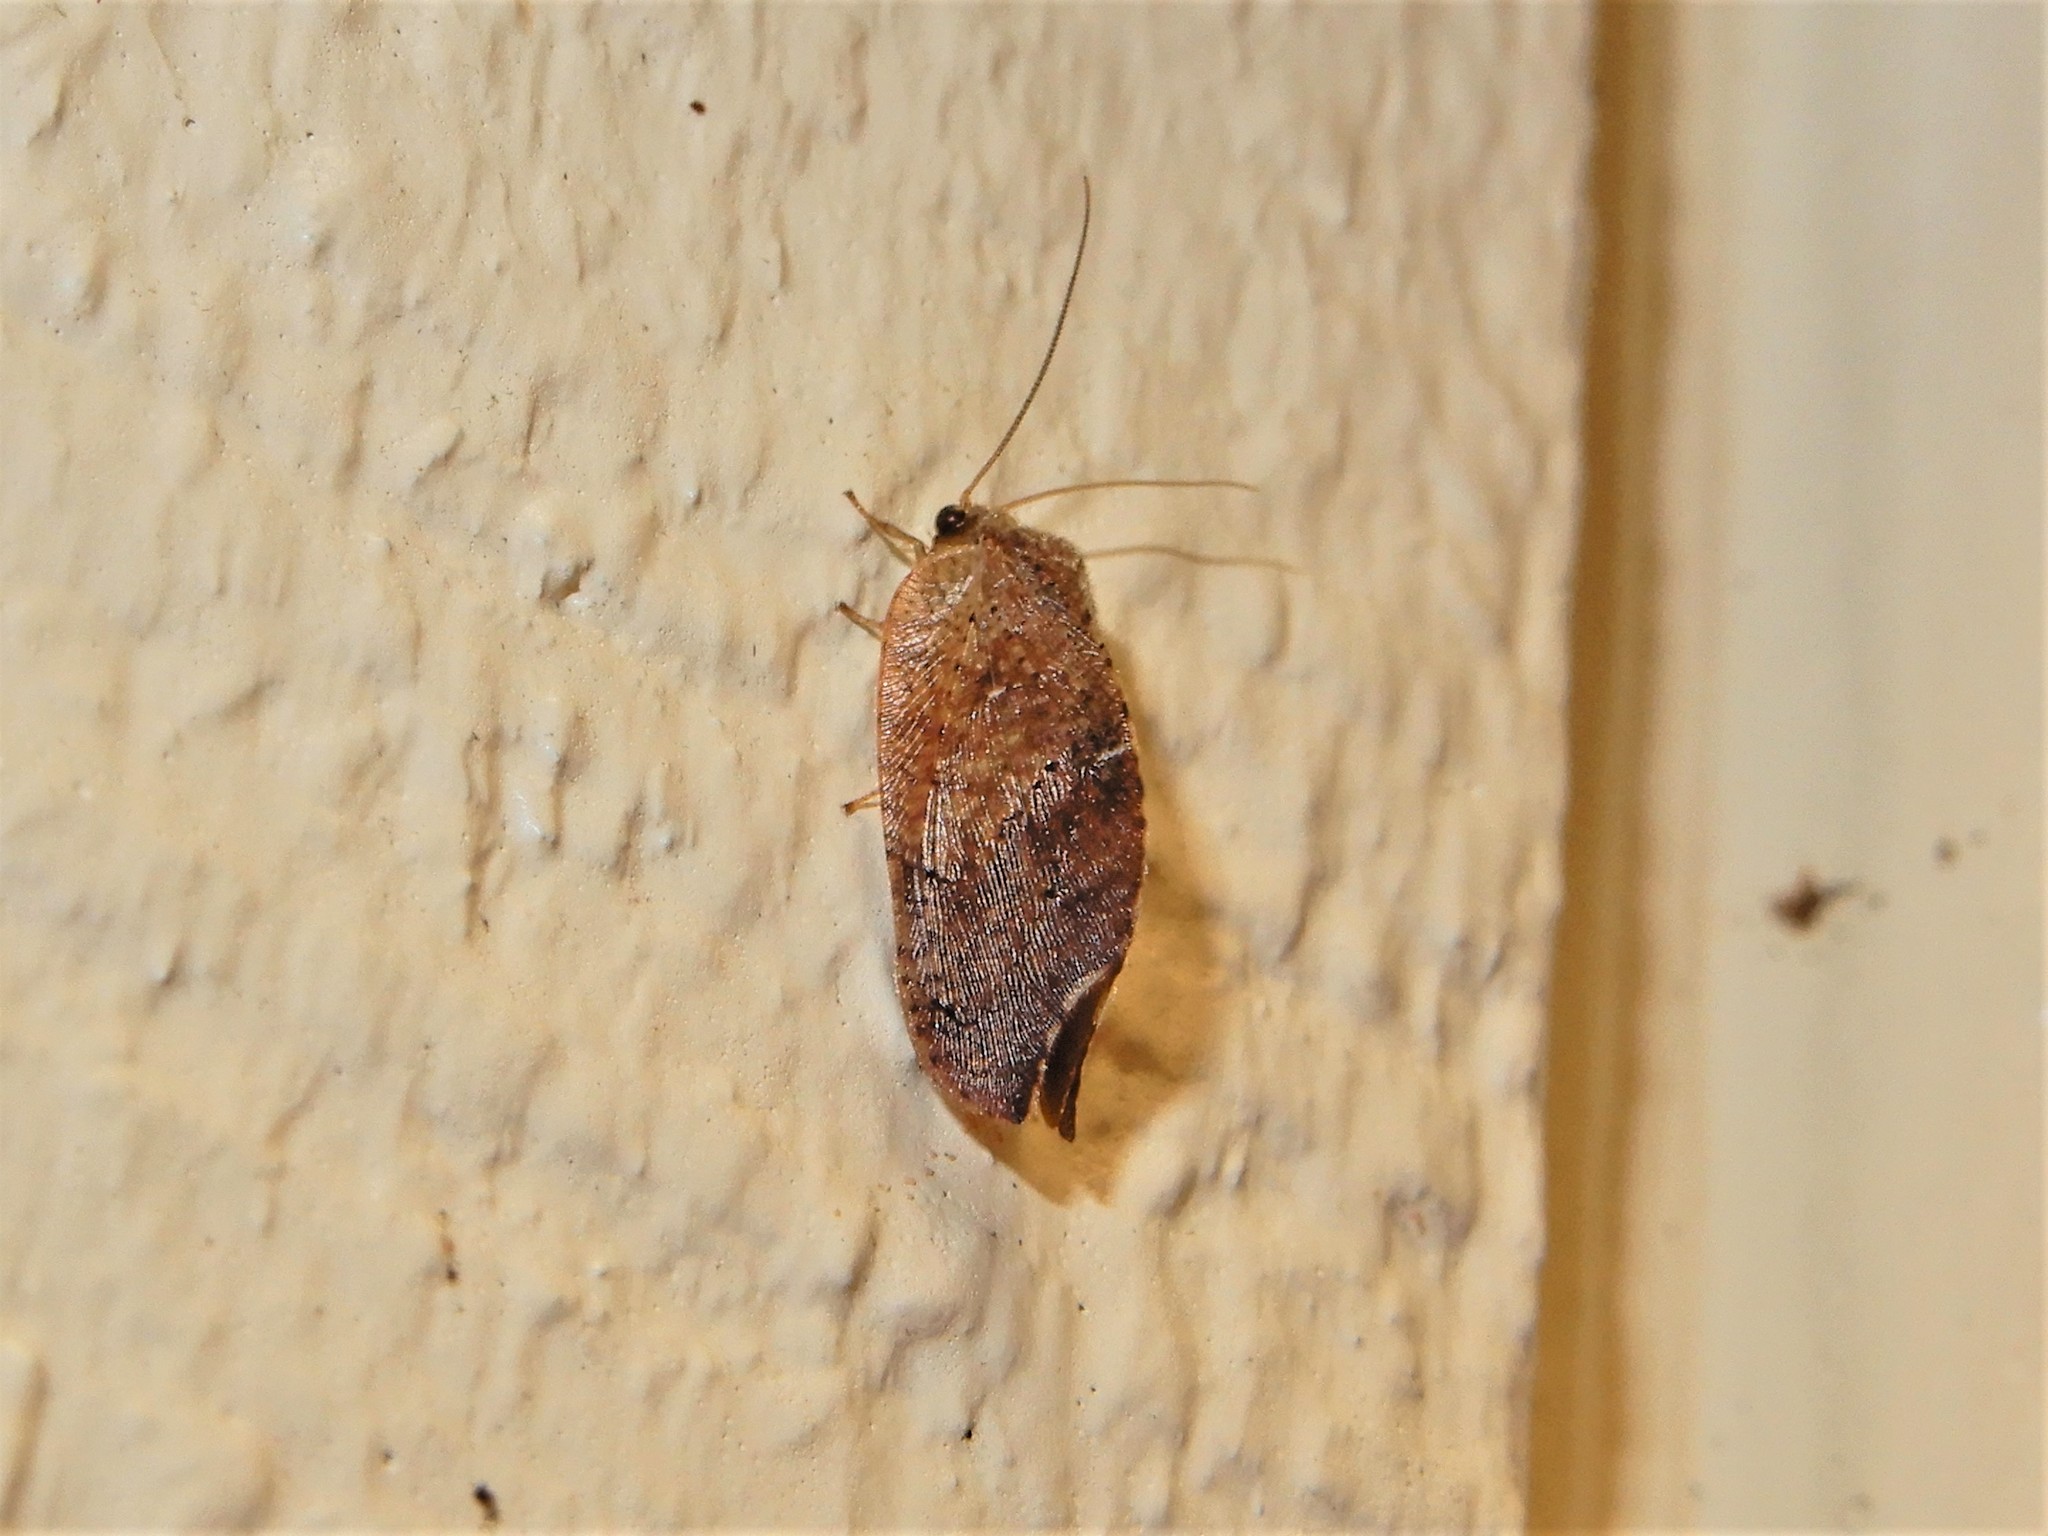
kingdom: Animalia
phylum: Arthropoda
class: Insecta
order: Neuroptera
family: Hemerobiidae
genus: Drepanacra
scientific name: Drepanacra binocula
